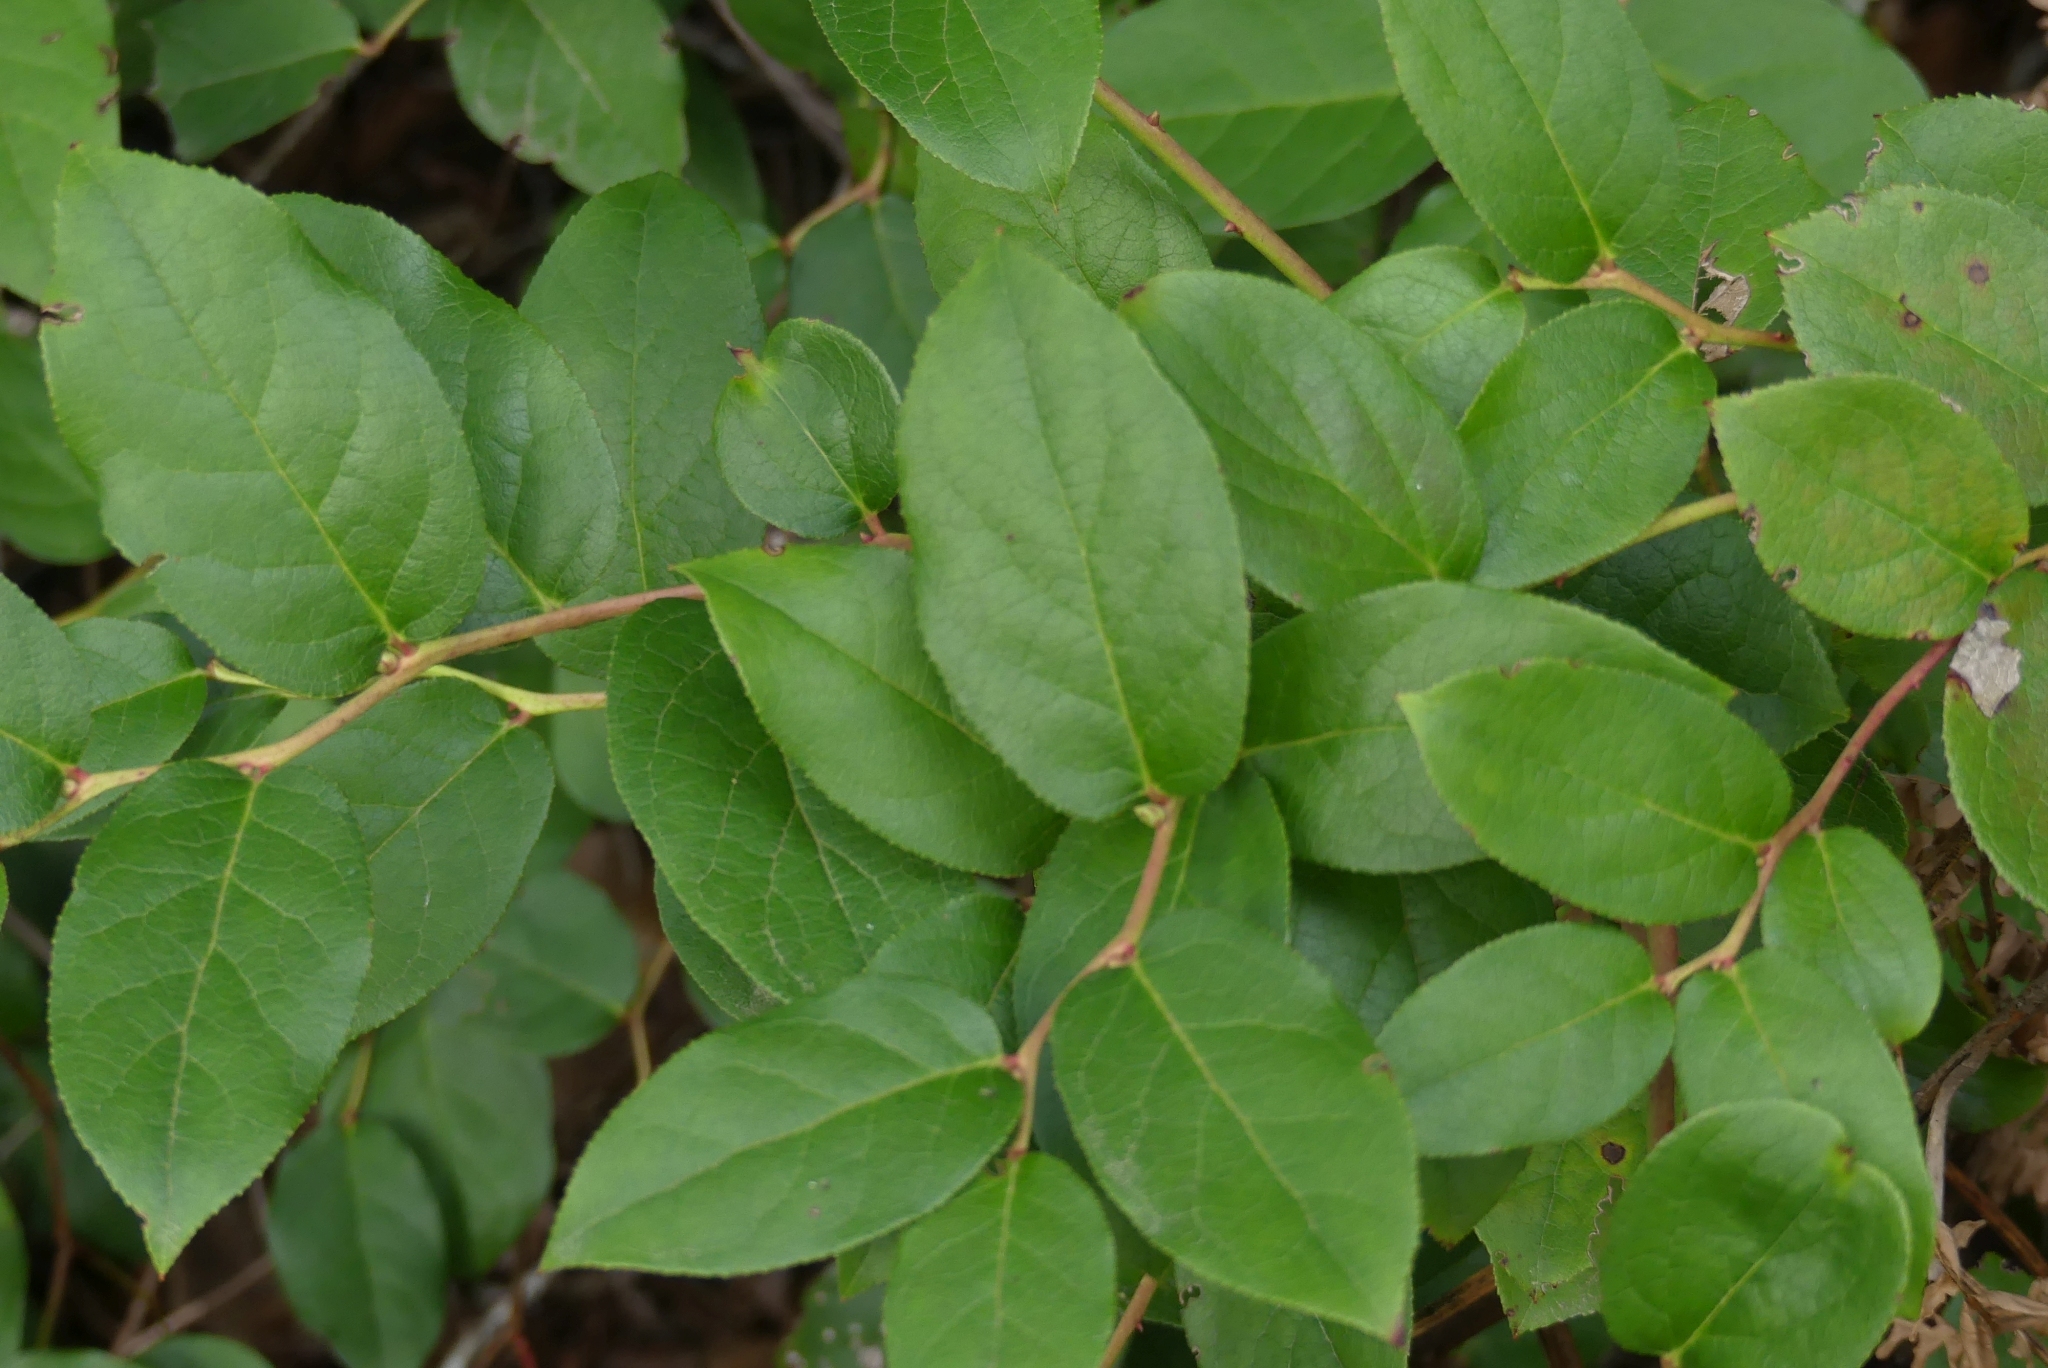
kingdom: Plantae
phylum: Tracheophyta
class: Magnoliopsida
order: Ericales
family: Ericaceae
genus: Gaultheria
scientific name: Gaultheria shallon
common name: Shallon
